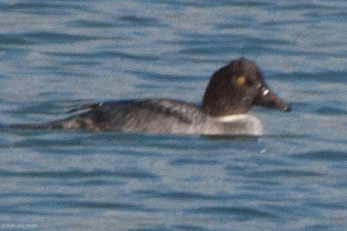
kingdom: Animalia
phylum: Chordata
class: Aves
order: Anseriformes
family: Anatidae
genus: Bucephala
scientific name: Bucephala clangula
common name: Common goldeneye
